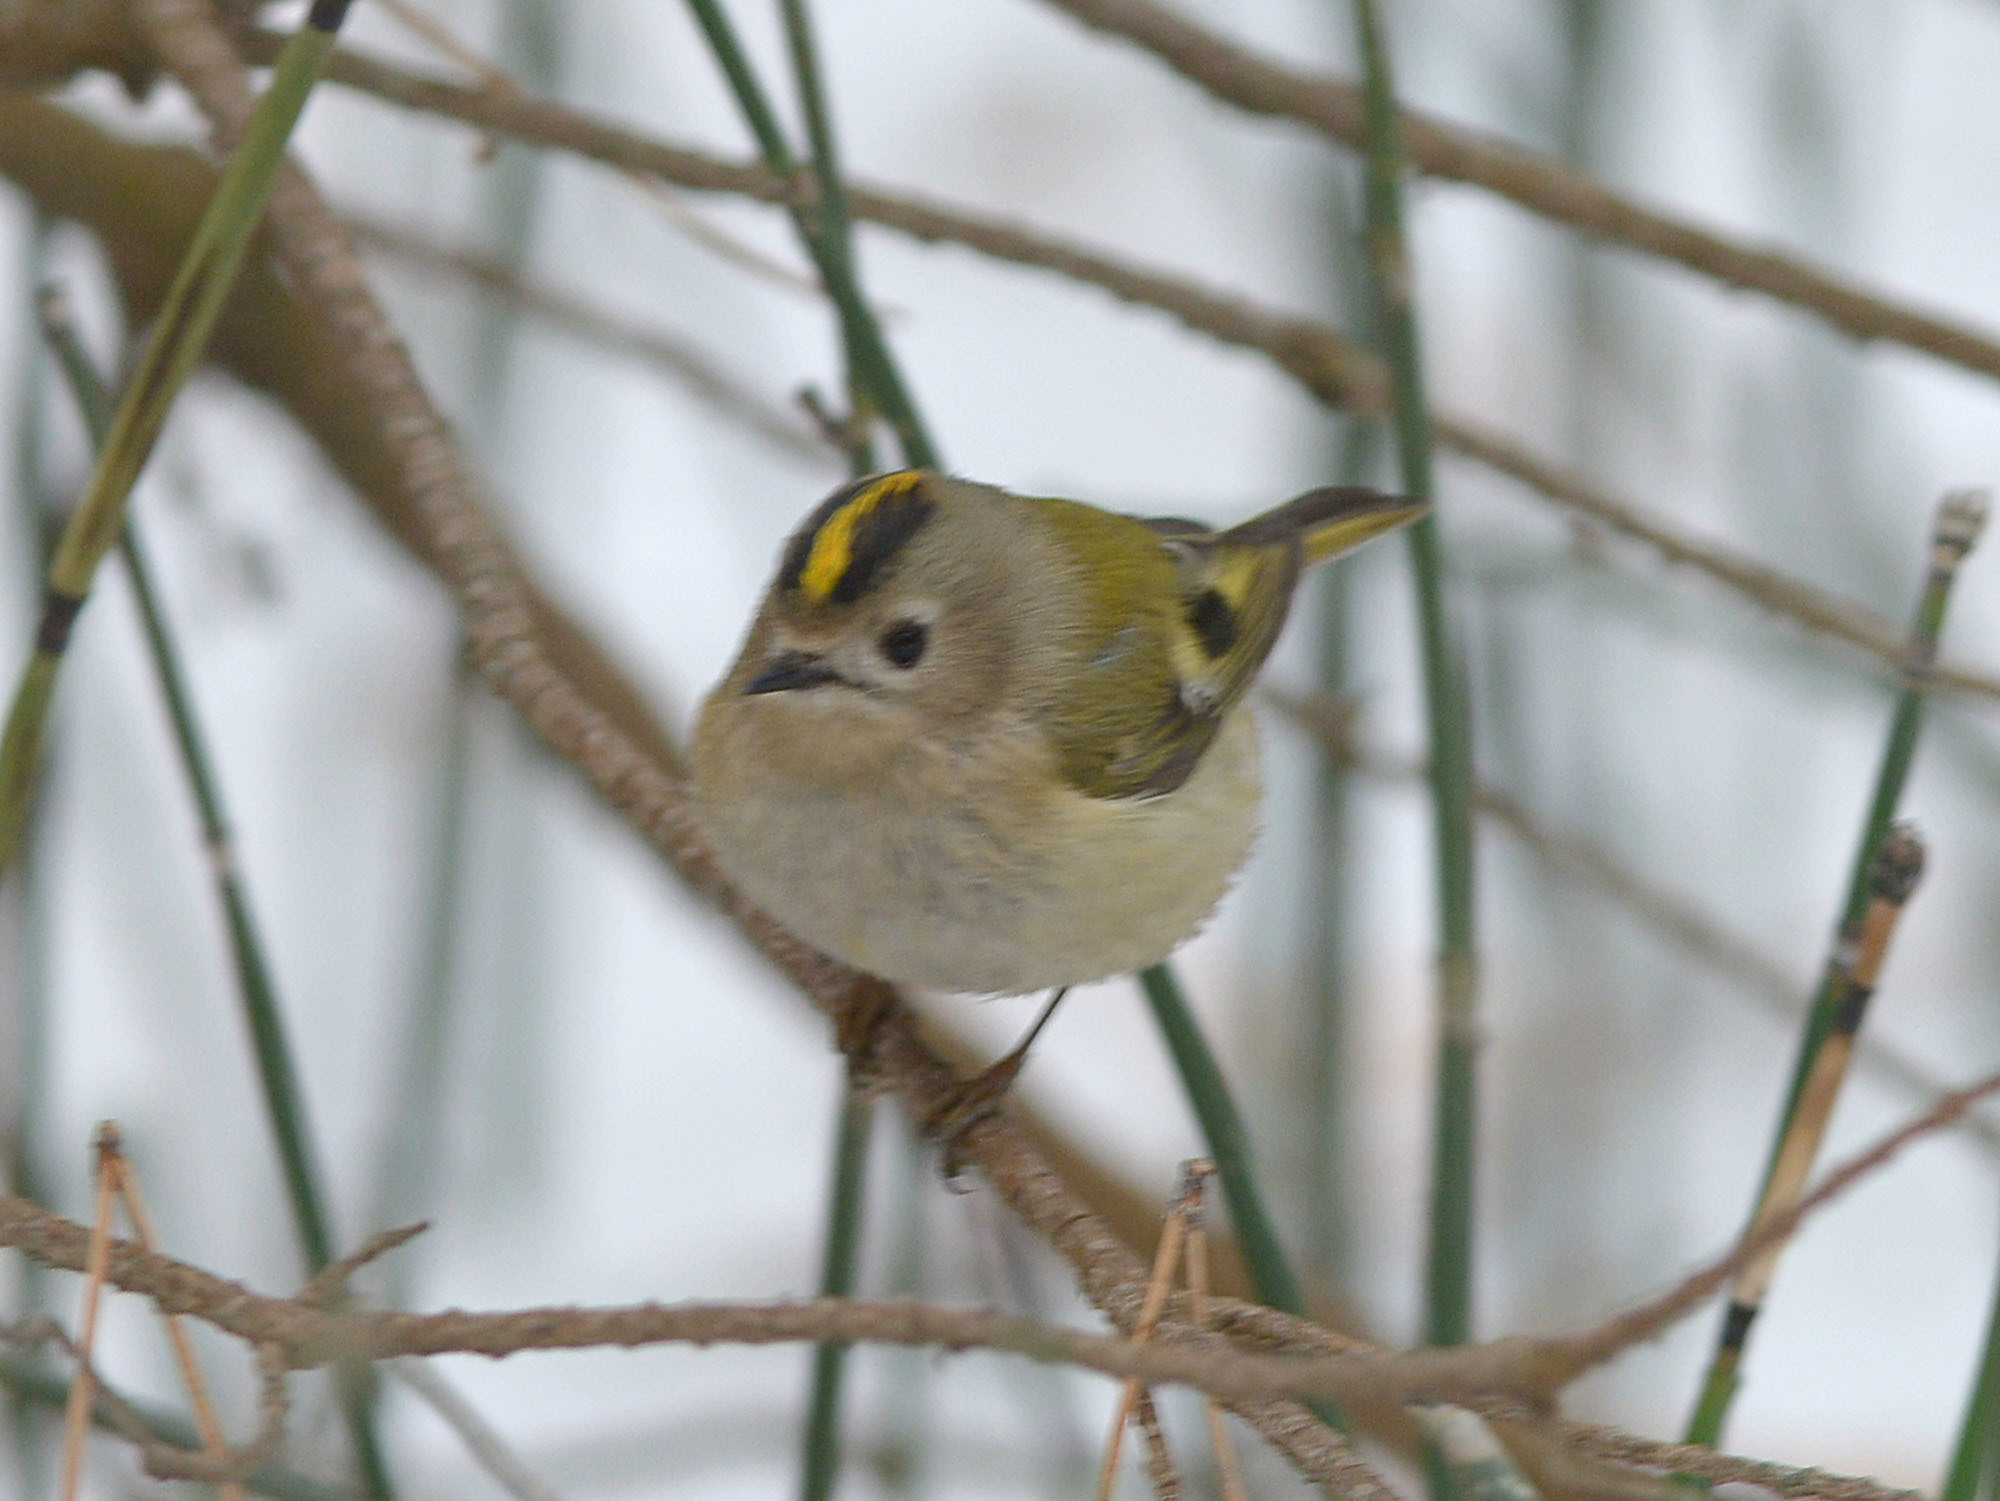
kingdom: Animalia
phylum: Chordata
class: Aves
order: Passeriformes
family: Regulidae
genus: Regulus
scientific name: Regulus regulus
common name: Goldcrest
